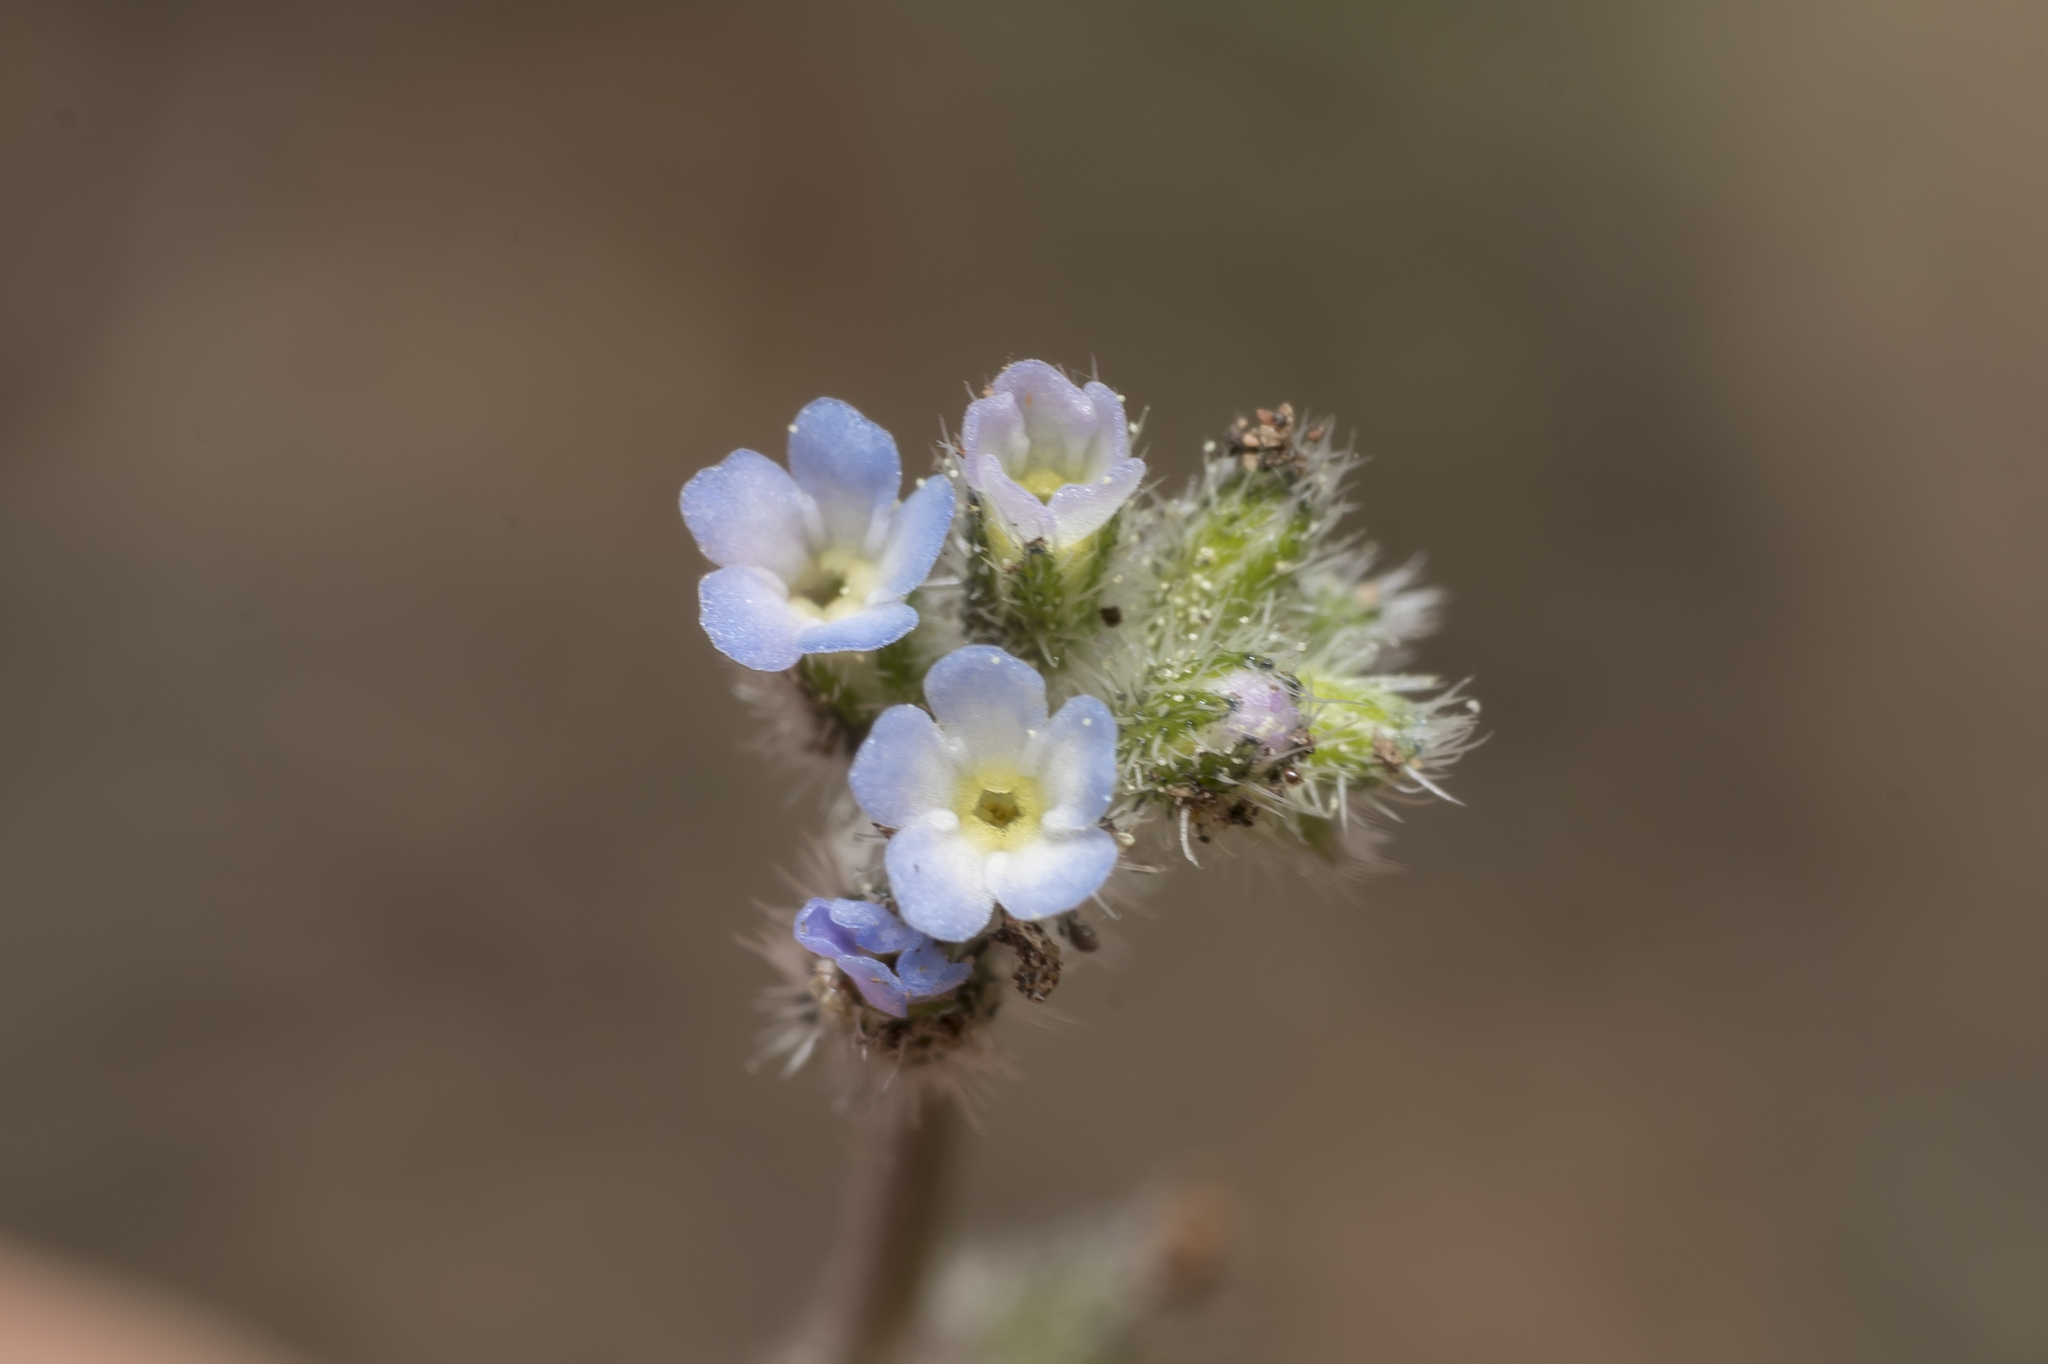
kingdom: Plantae
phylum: Tracheophyta
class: Magnoliopsida
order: Boraginales
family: Boraginaceae
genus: Myosotis
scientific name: Myosotis ramosissima
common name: Early forget-me-not
